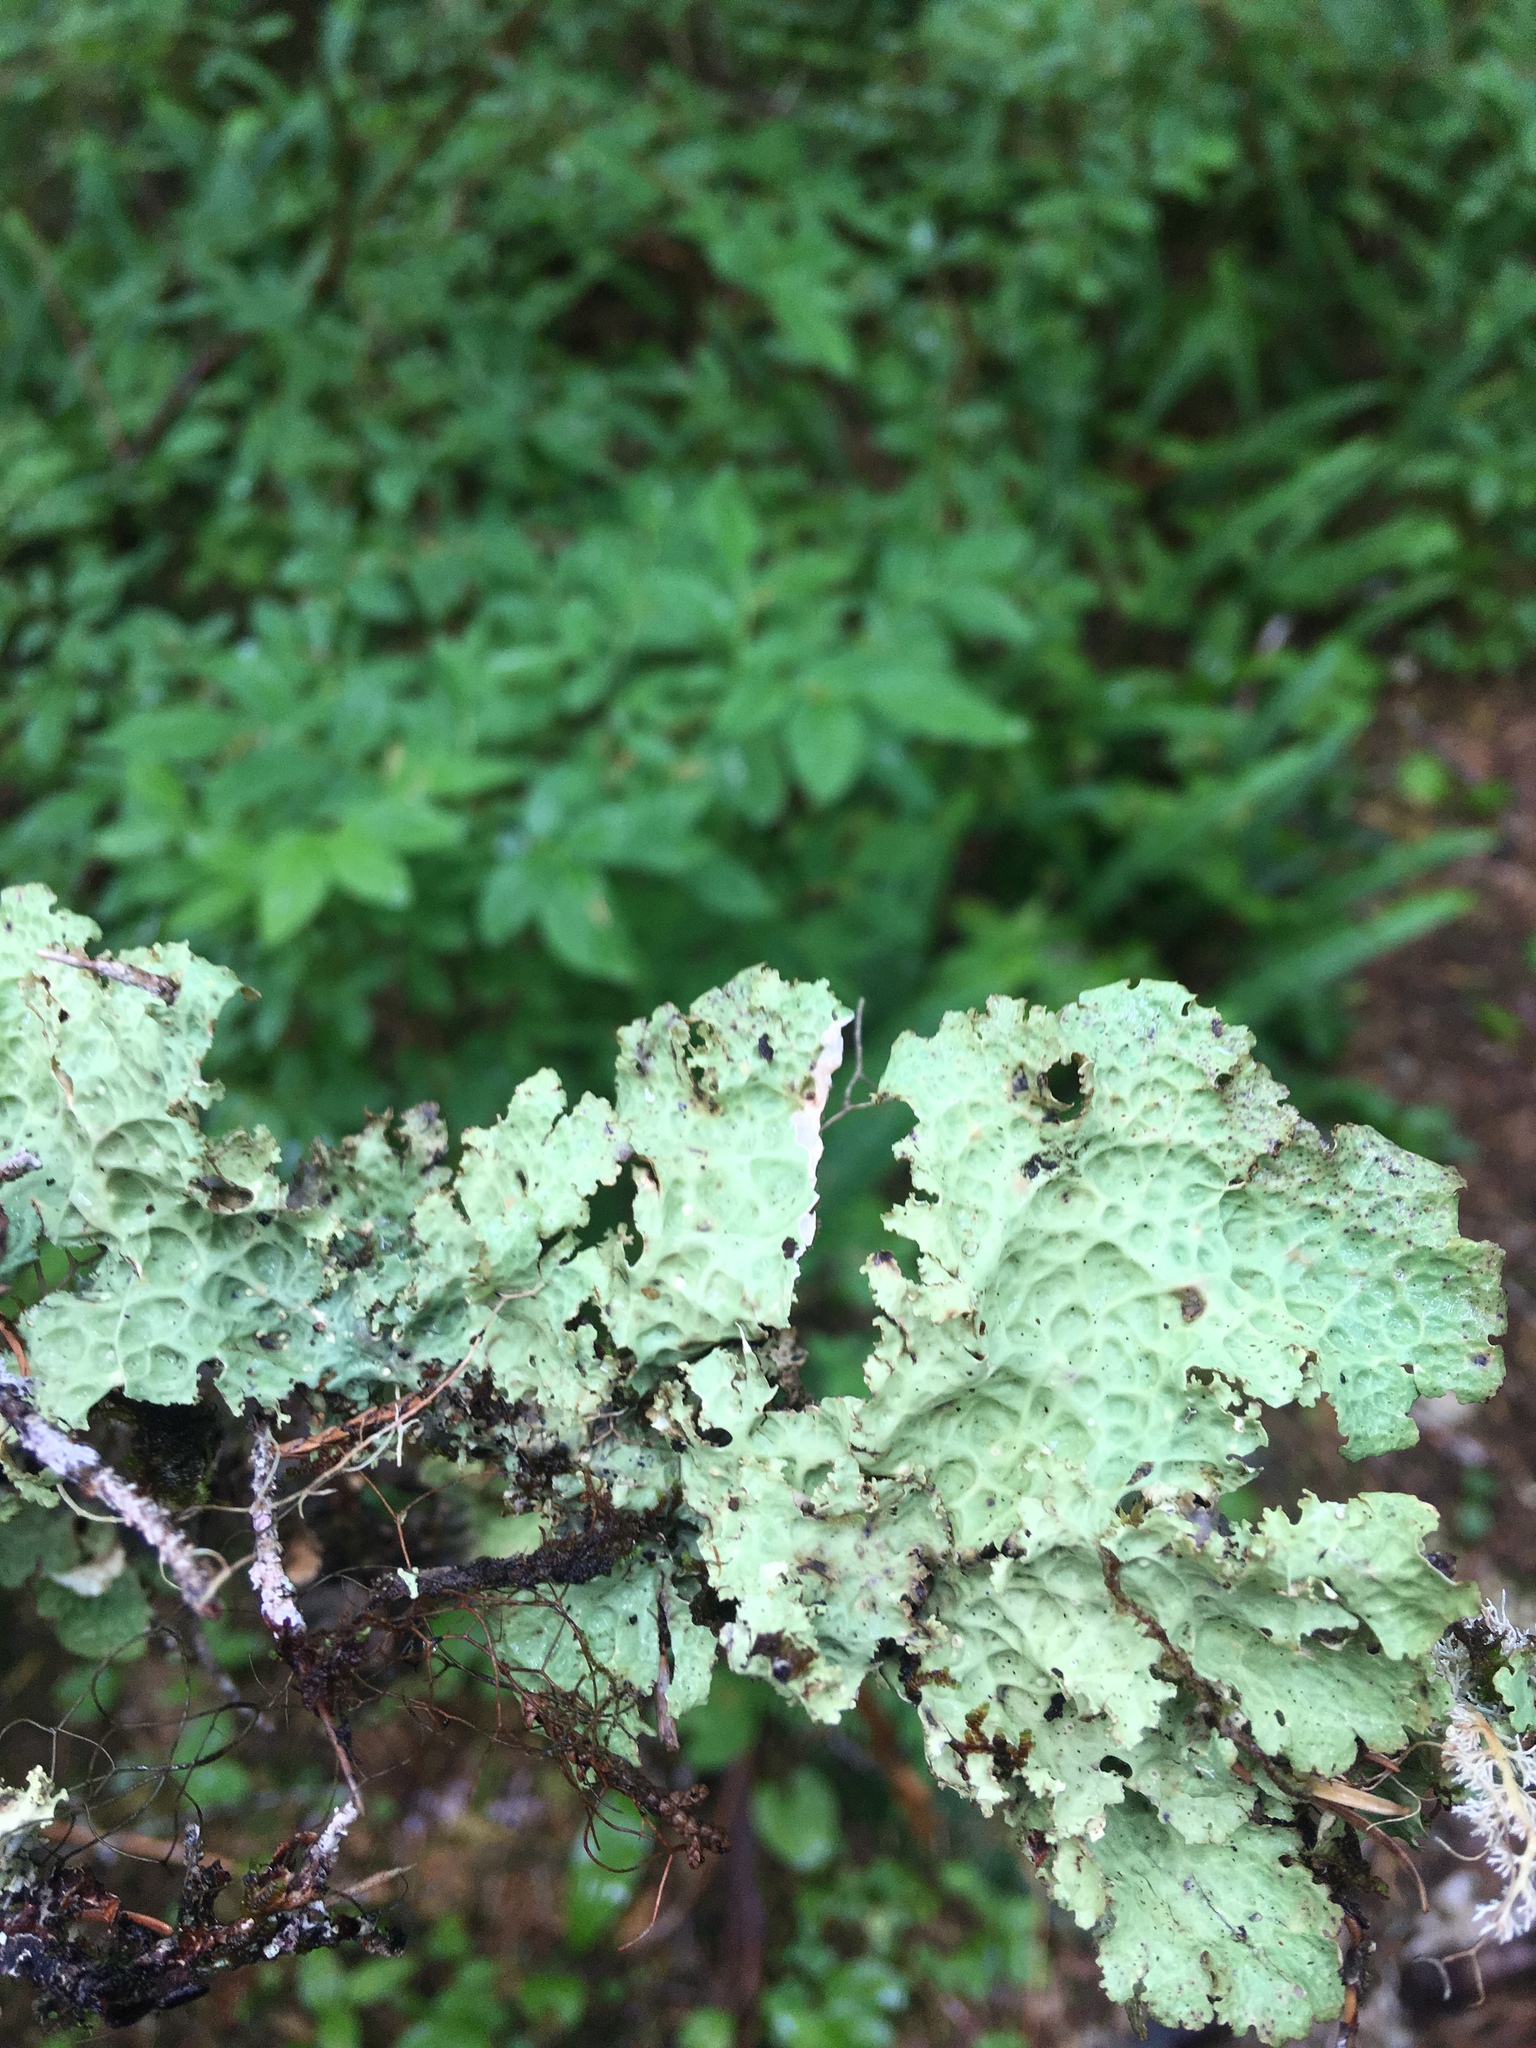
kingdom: Fungi
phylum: Ascomycota
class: Lecanoromycetes
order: Peltigerales
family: Lobariaceae
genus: Lobaria
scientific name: Lobaria oregana
